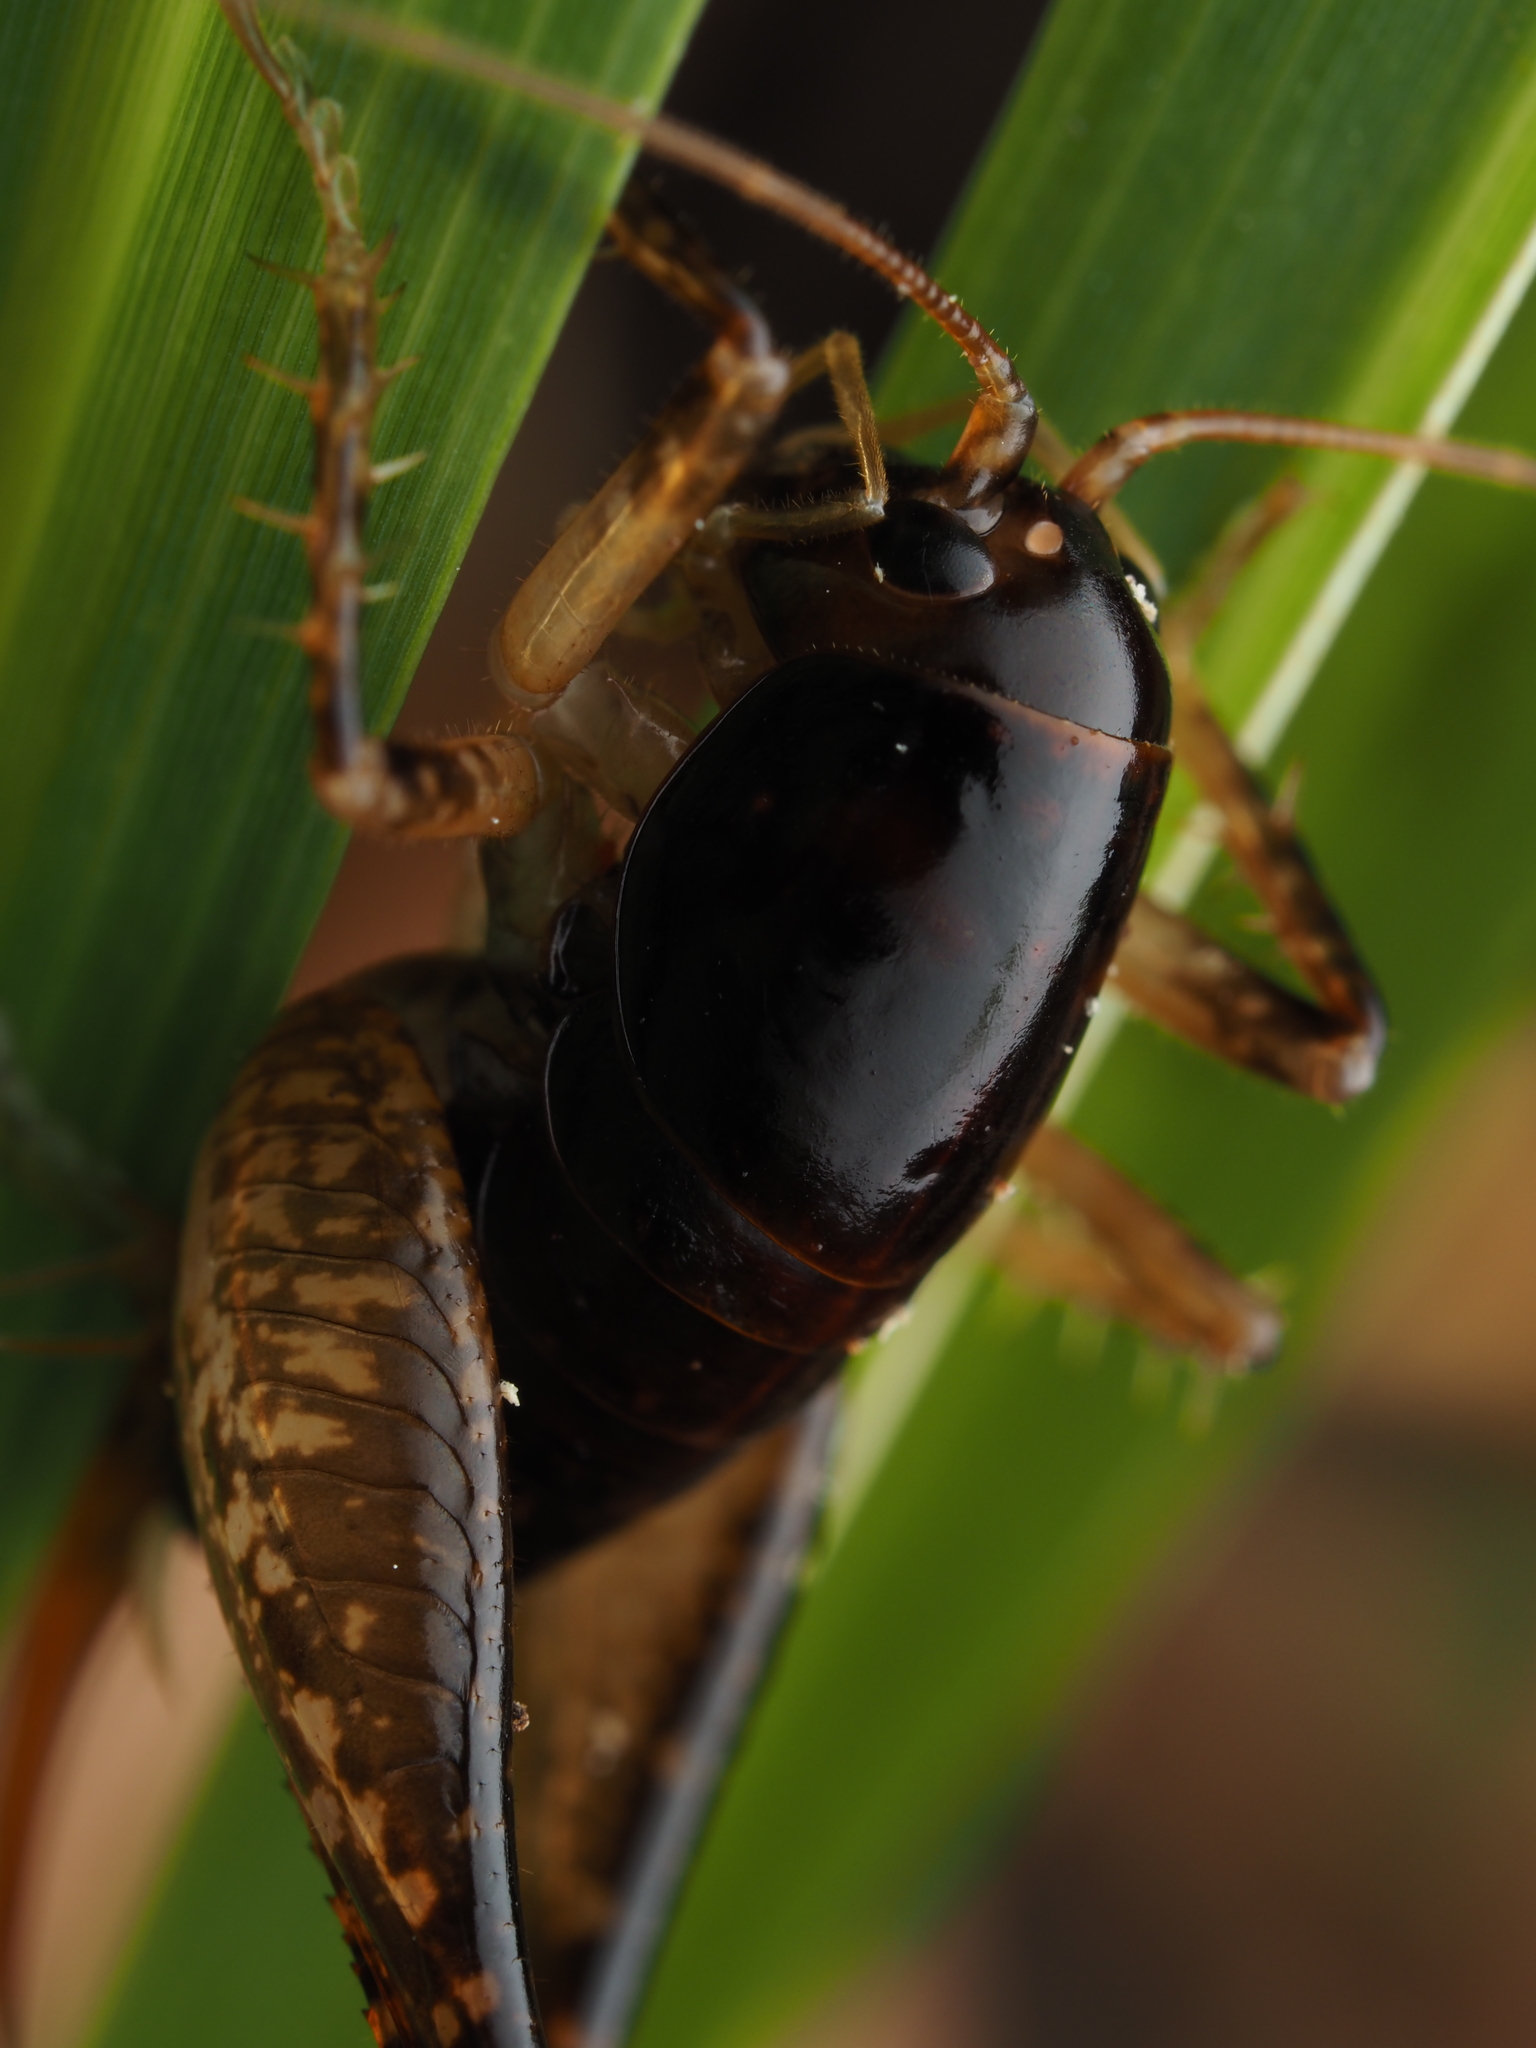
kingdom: Animalia
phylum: Arthropoda
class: Insecta
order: Orthoptera
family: Anostostomatidae
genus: Hemiandrus
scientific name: Hemiandrus nox
